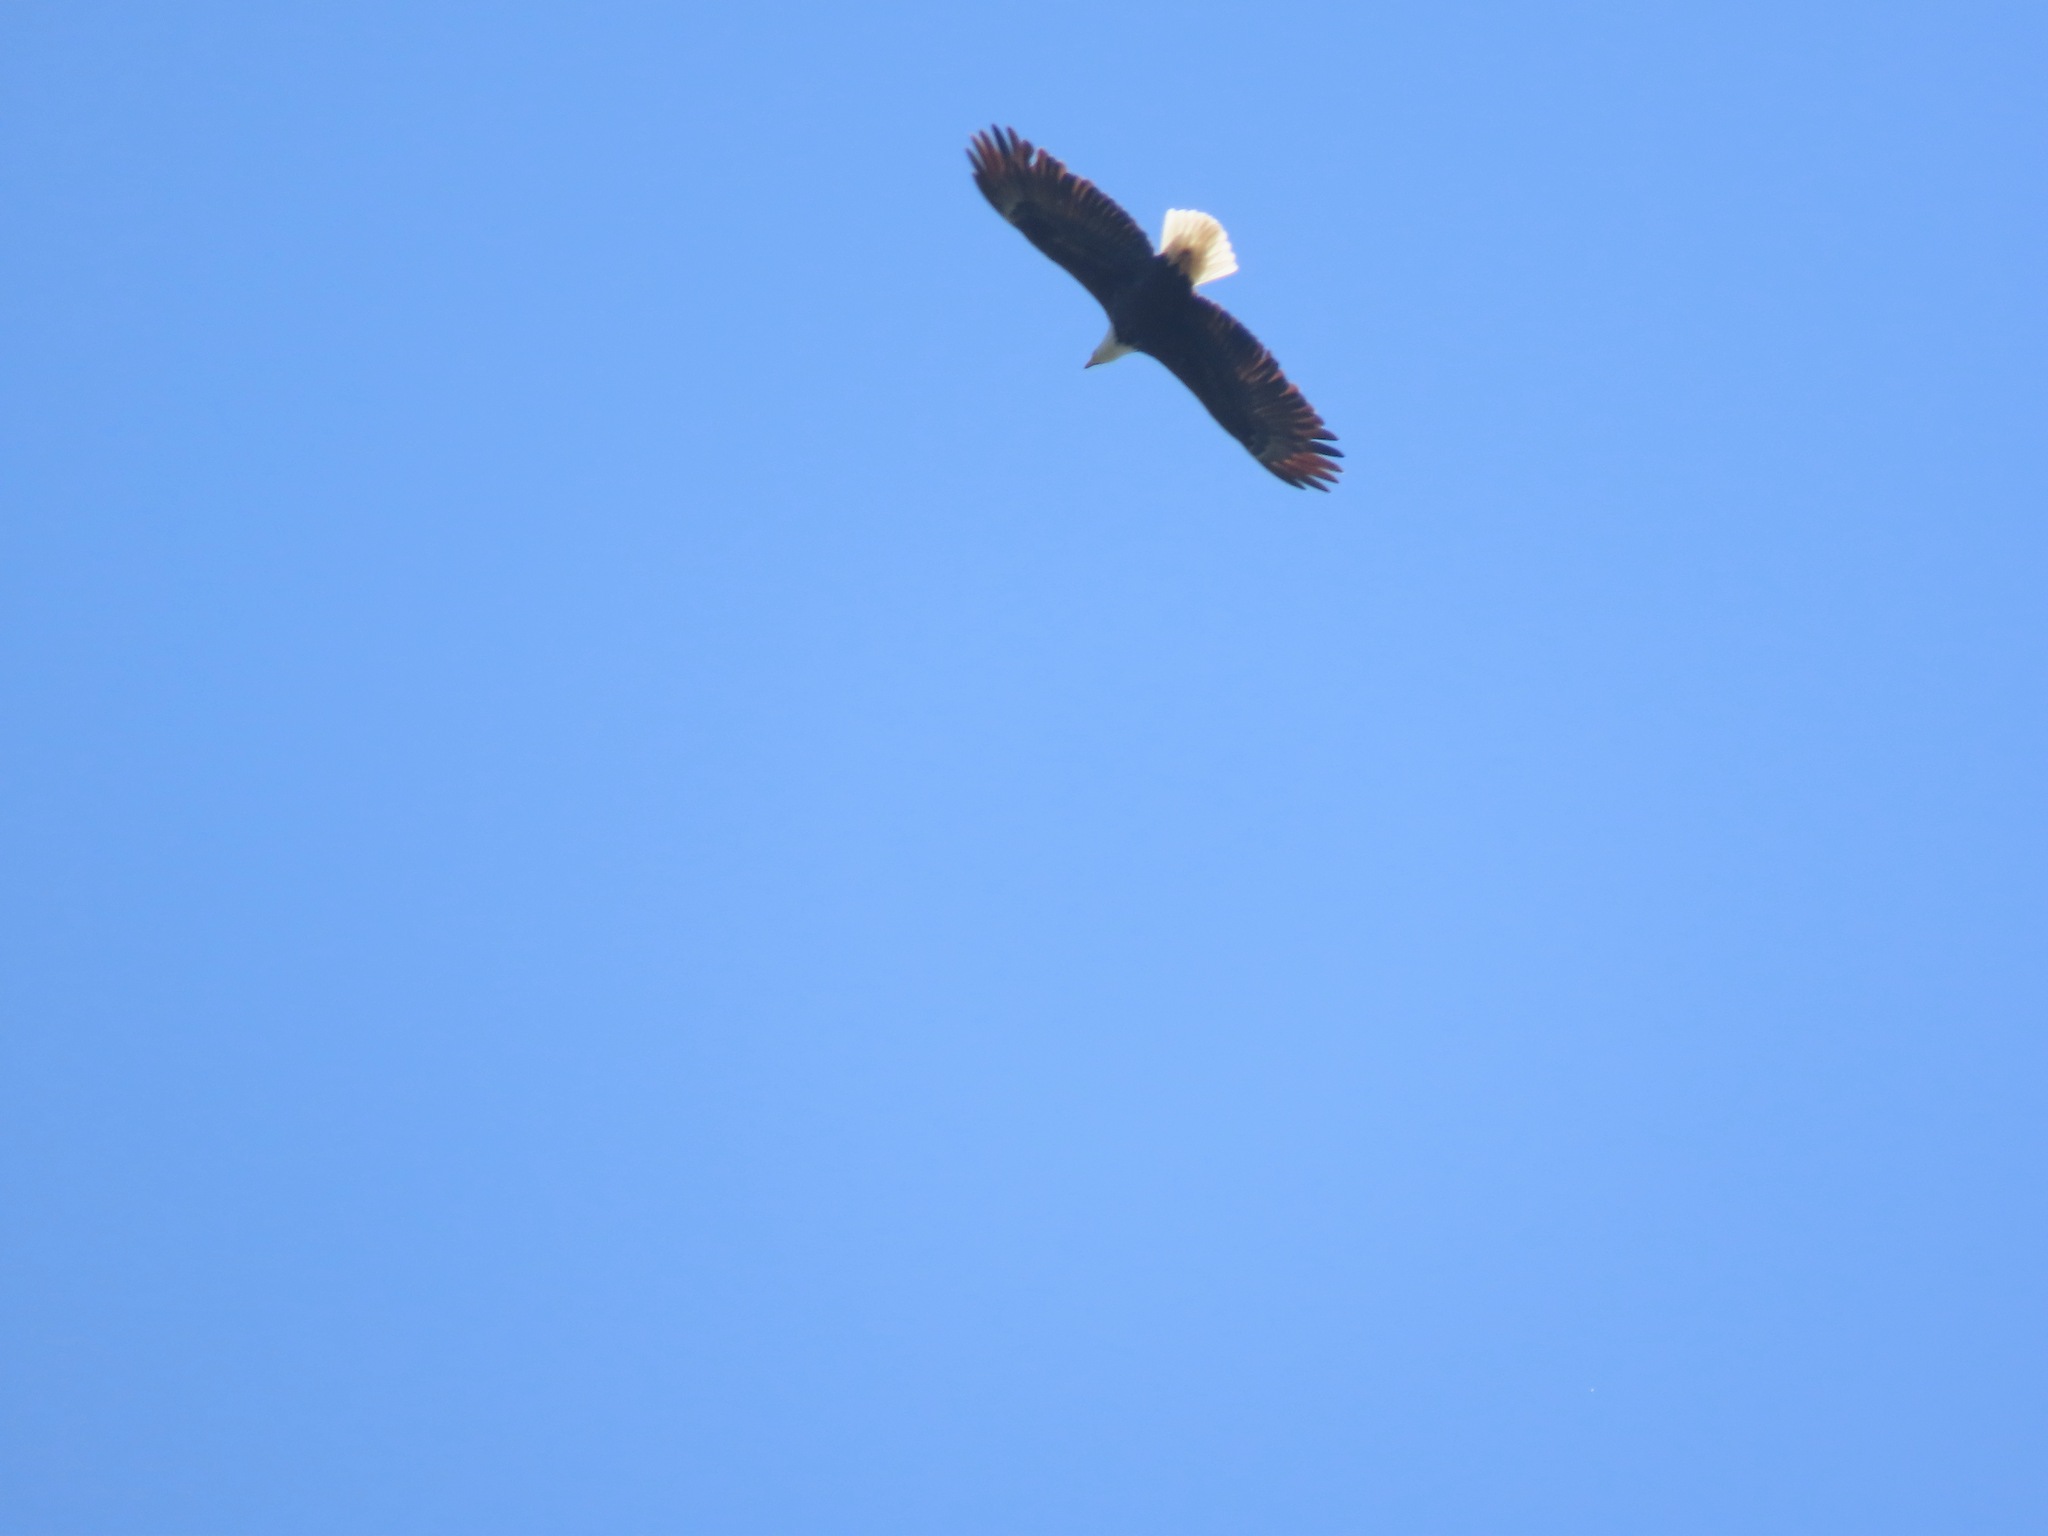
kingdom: Animalia
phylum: Chordata
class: Aves
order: Accipitriformes
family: Accipitridae
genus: Haliaeetus
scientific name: Haliaeetus leucocephalus
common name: Bald eagle
